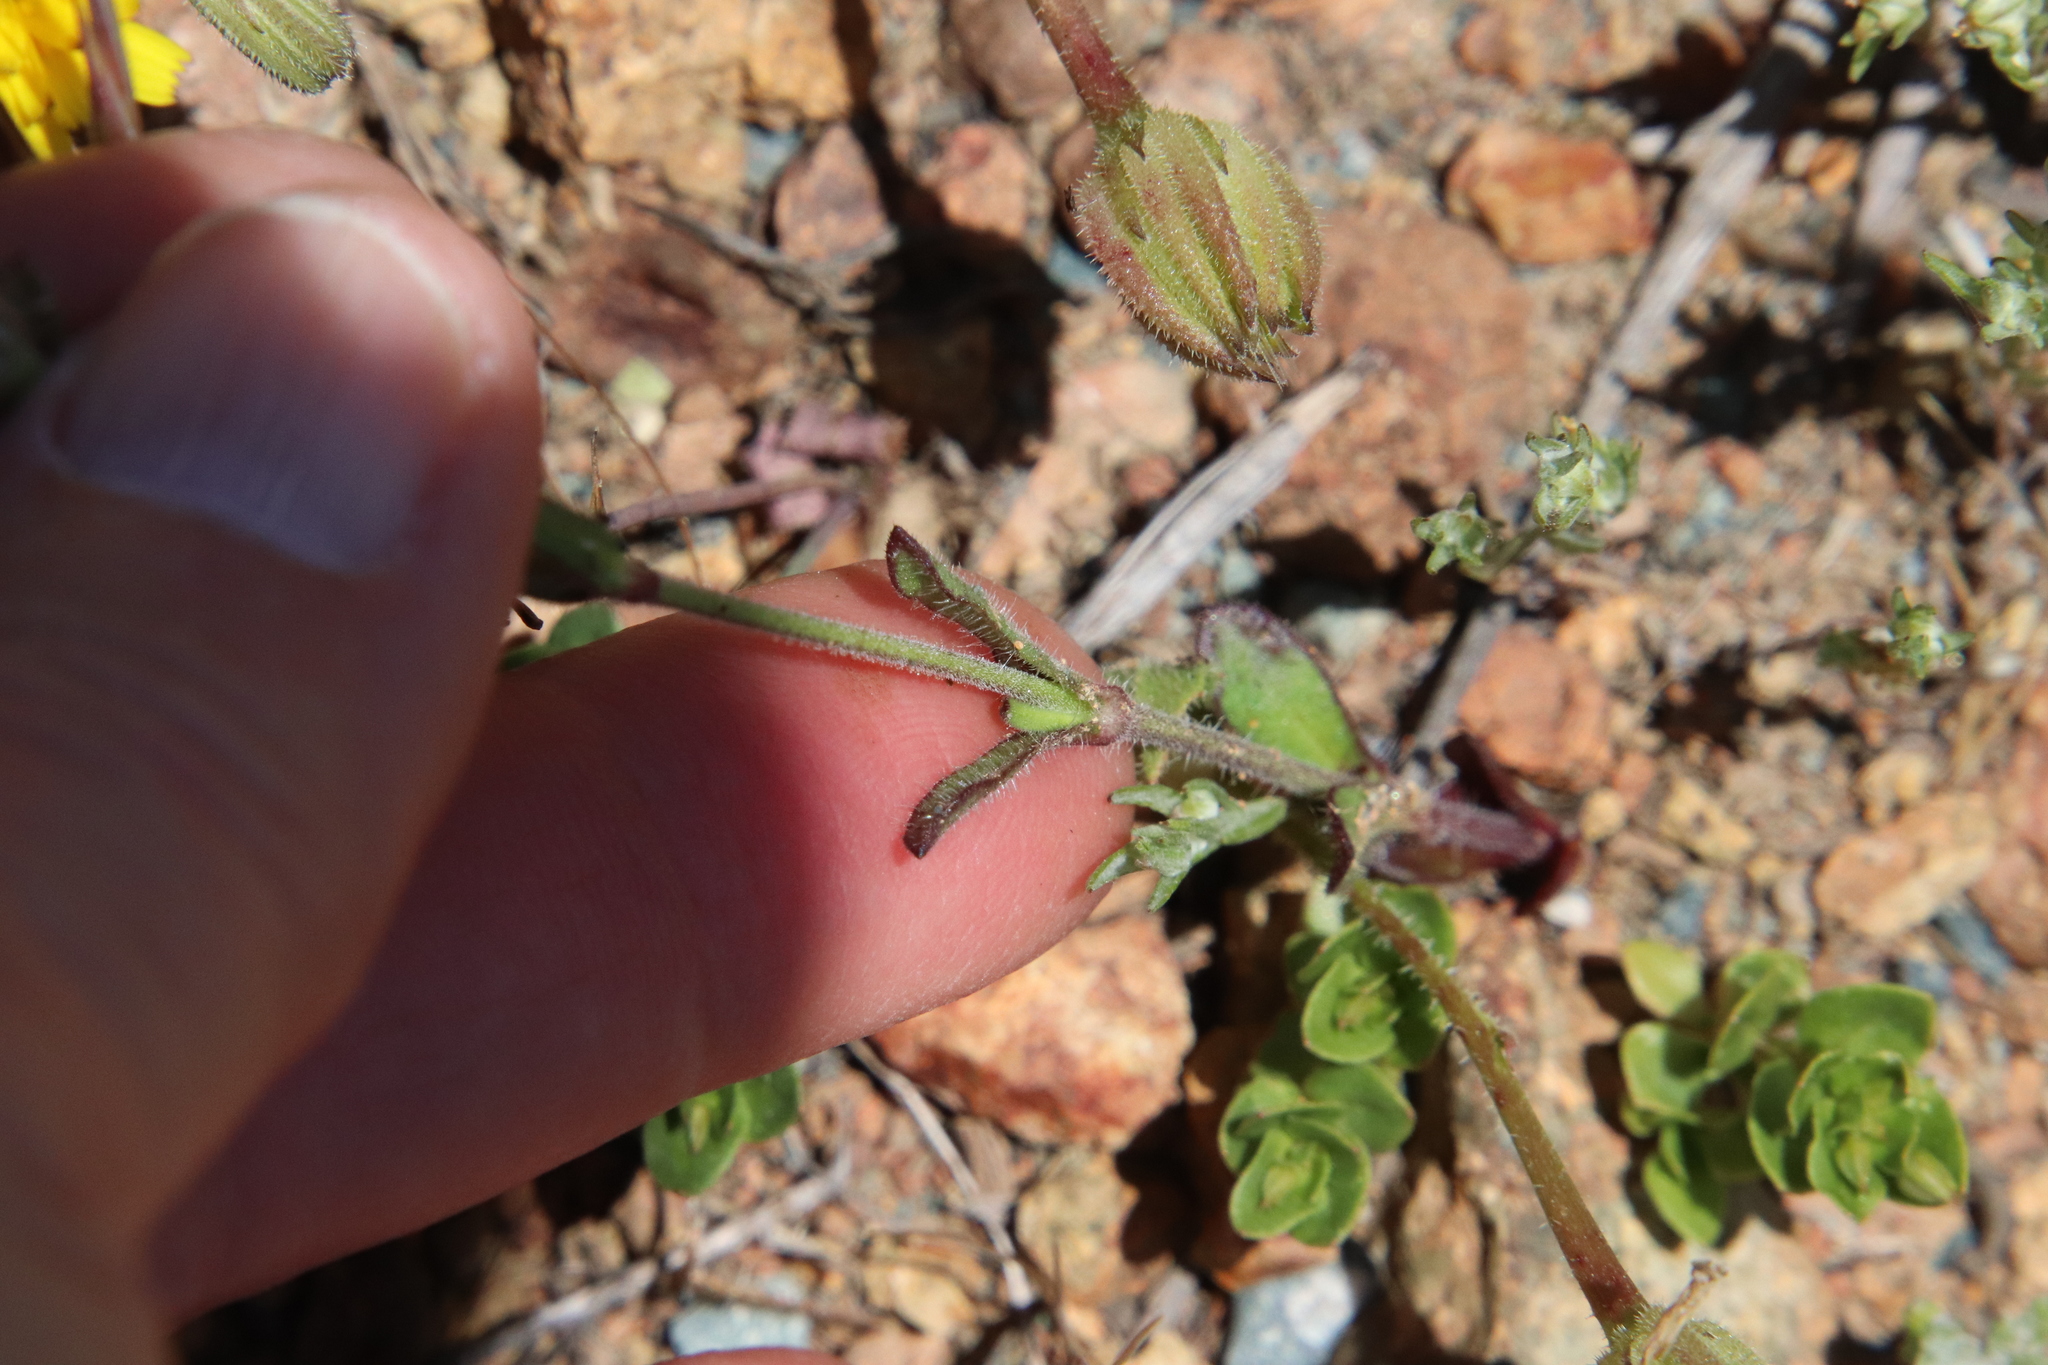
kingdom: Plantae
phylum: Tracheophyta
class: Magnoliopsida
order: Caryophyllales
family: Caryophyllaceae
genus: Silene
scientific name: Silene gallica
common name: Small-flowered catchfly
